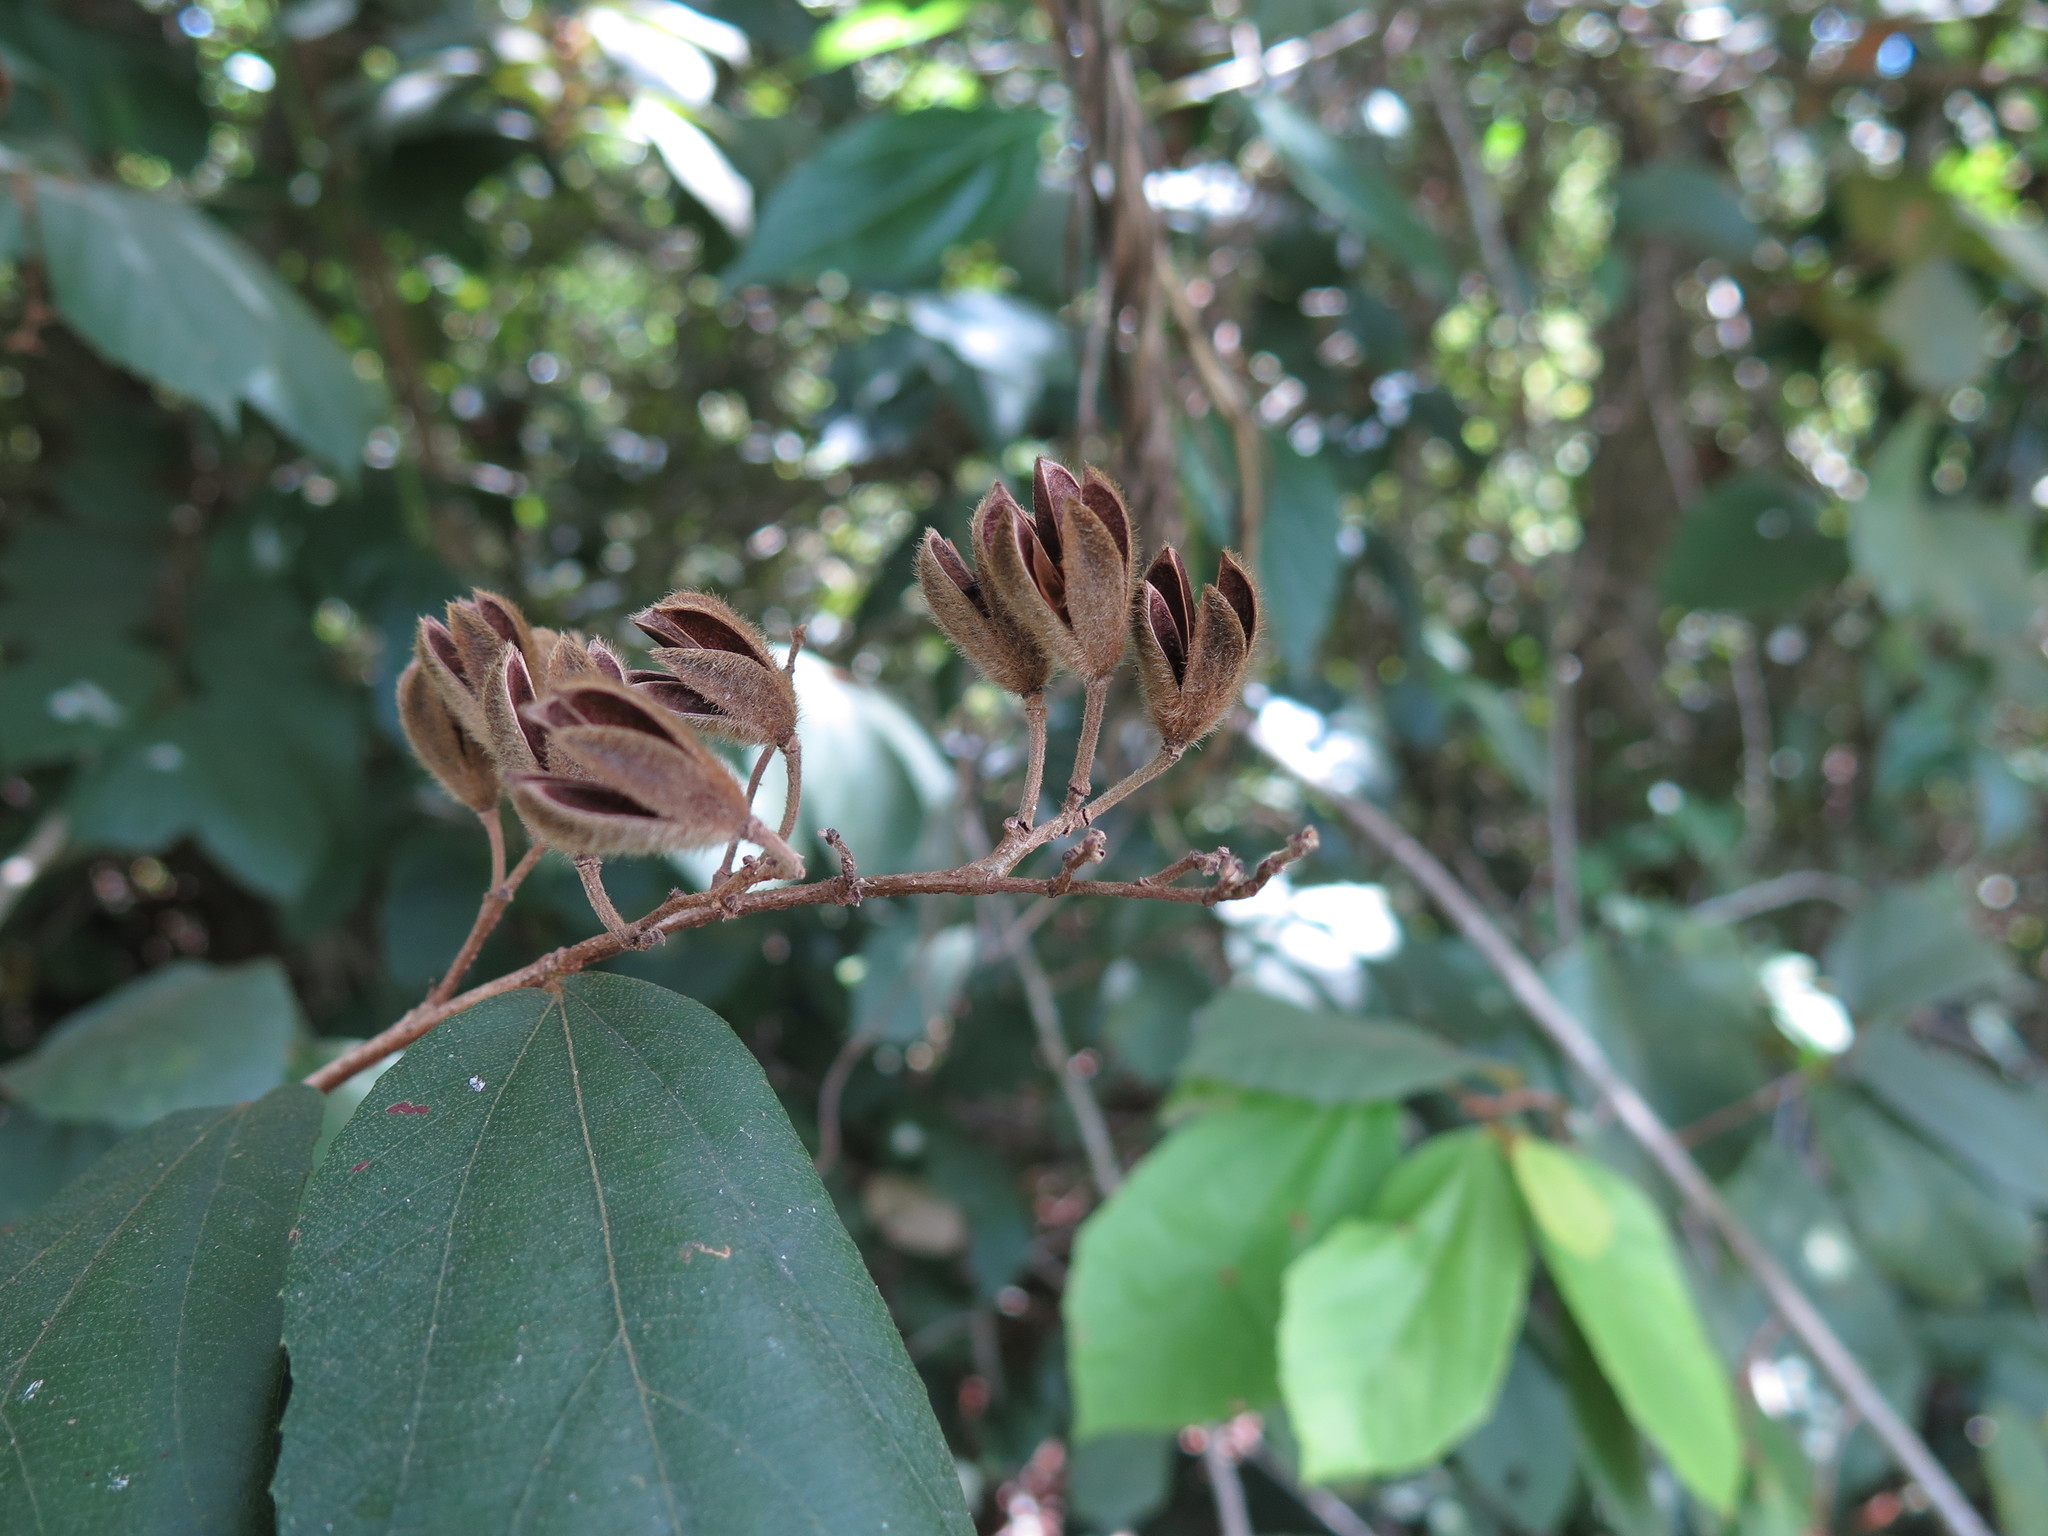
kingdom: Plantae
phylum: Tracheophyta
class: Magnoliopsida
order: Malvales
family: Malvaceae
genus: Luehea
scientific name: Luehea ochrophylla
